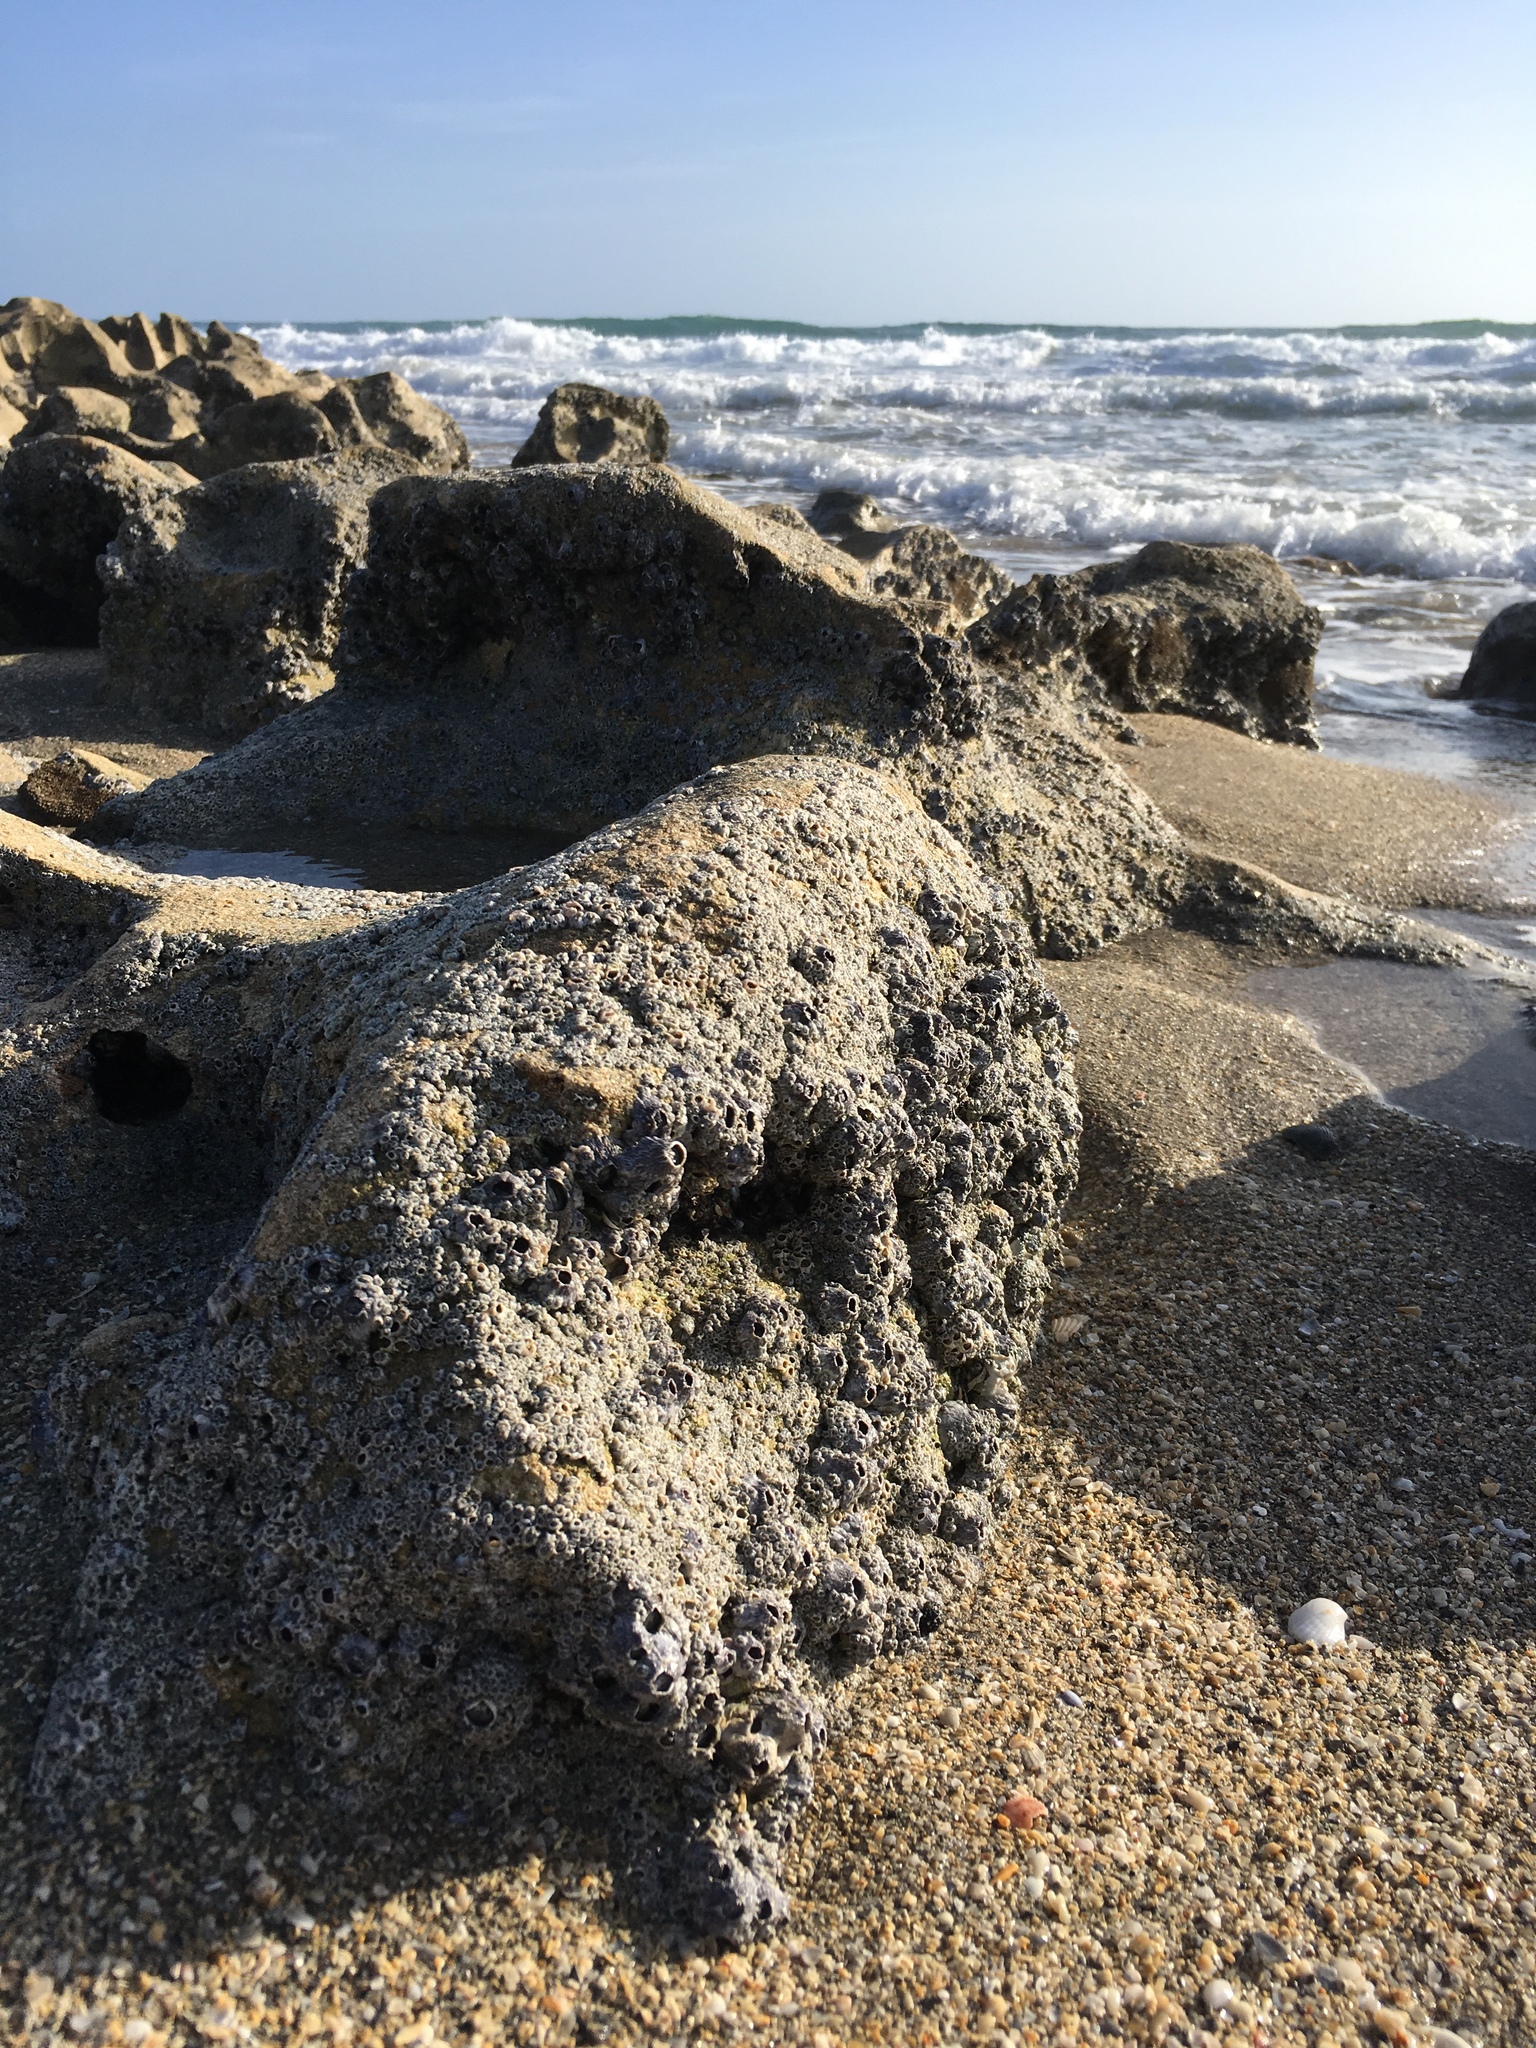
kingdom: Animalia
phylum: Arthropoda
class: Maxillopoda
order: Sessilia
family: Chthamalidae
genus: Chthamalus
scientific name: Chthamalus fragilis
